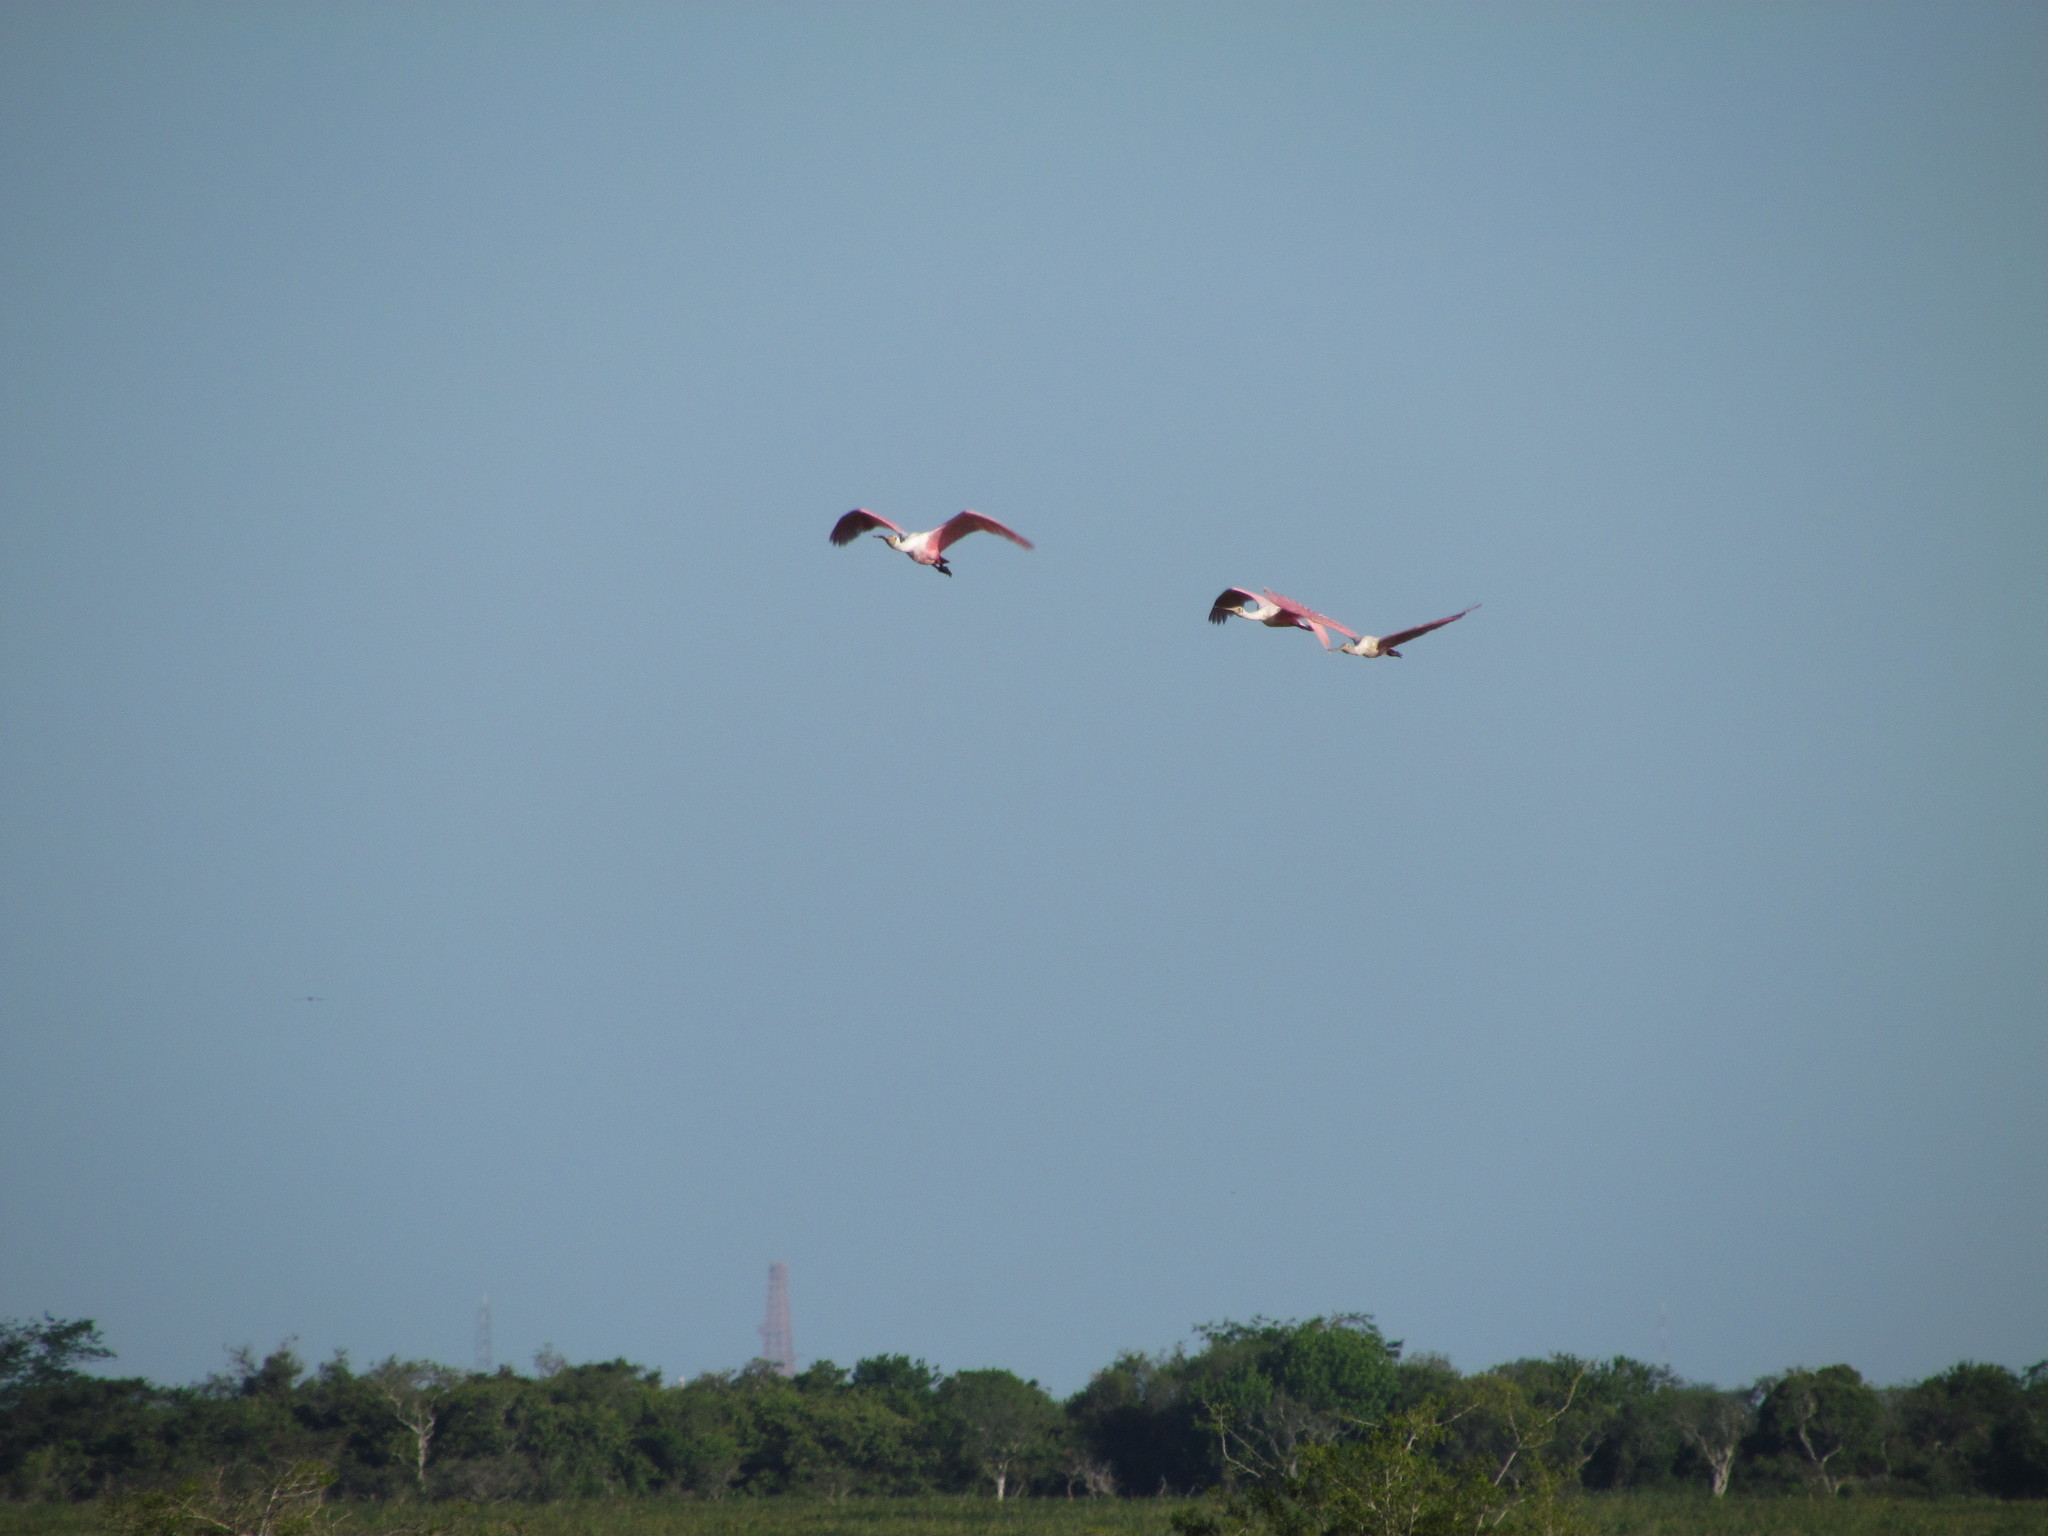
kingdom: Animalia
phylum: Chordata
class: Aves
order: Pelecaniformes
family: Threskiornithidae
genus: Platalea
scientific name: Platalea ajaja
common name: Roseate spoonbill
